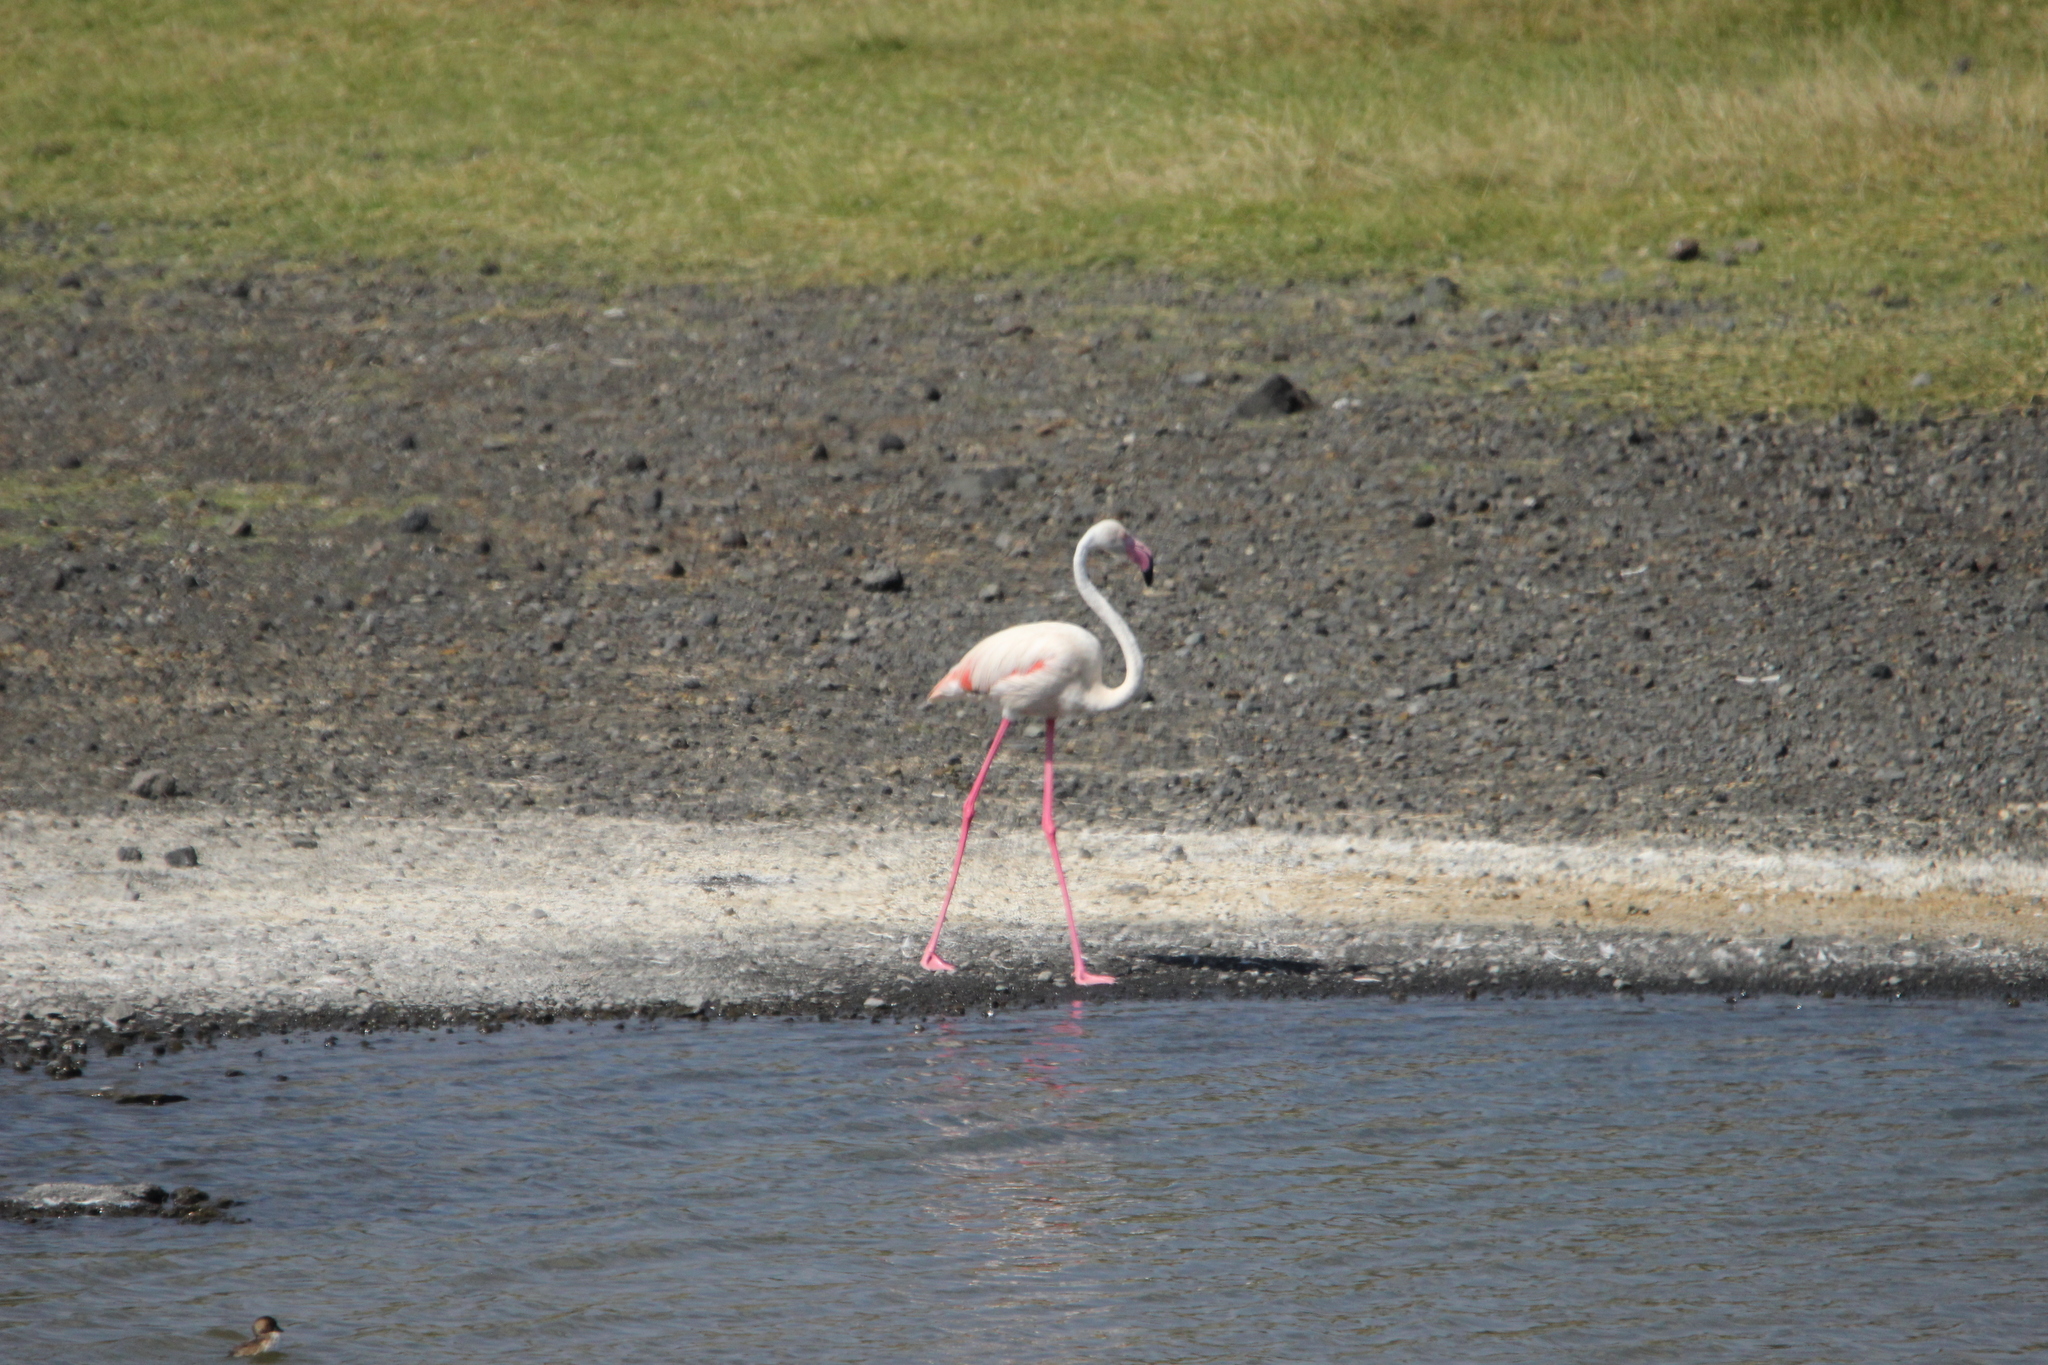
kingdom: Animalia
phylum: Chordata
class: Aves
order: Phoenicopteriformes
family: Phoenicopteridae
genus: Phoenicopterus
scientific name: Phoenicopterus roseus
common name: Greater flamingo
